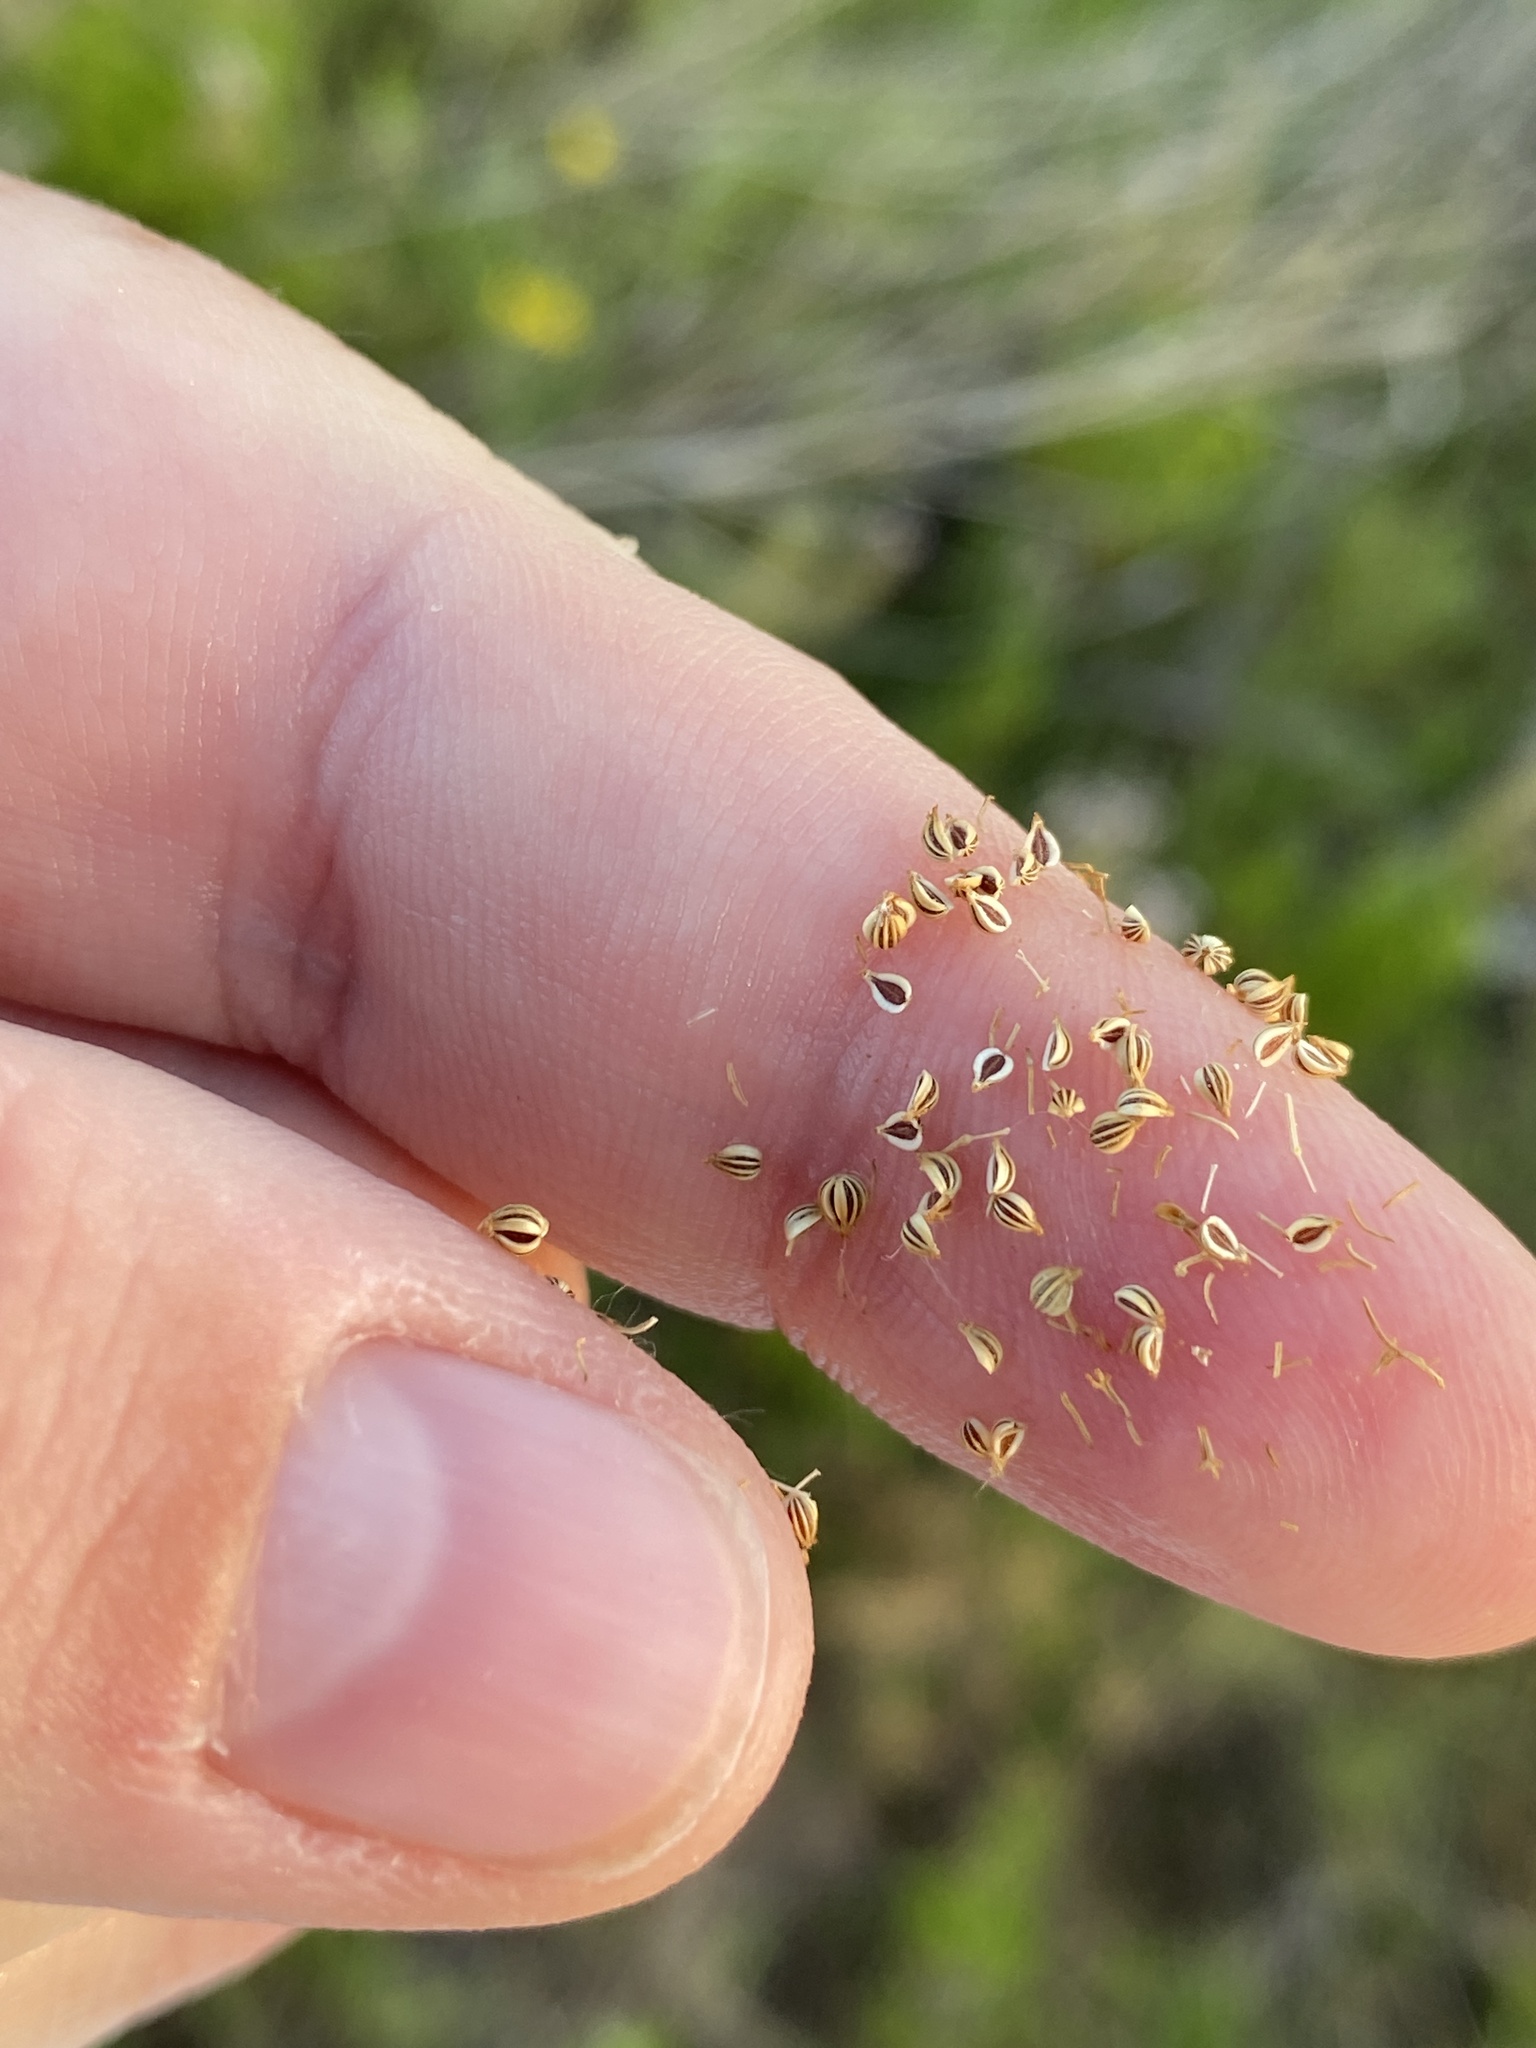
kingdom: Plantae
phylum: Tracheophyta
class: Magnoliopsida
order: Apiales
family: Apiaceae
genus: Ptilimnium
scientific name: Ptilimnium nuttallii
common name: Ozark bishop's-weed
